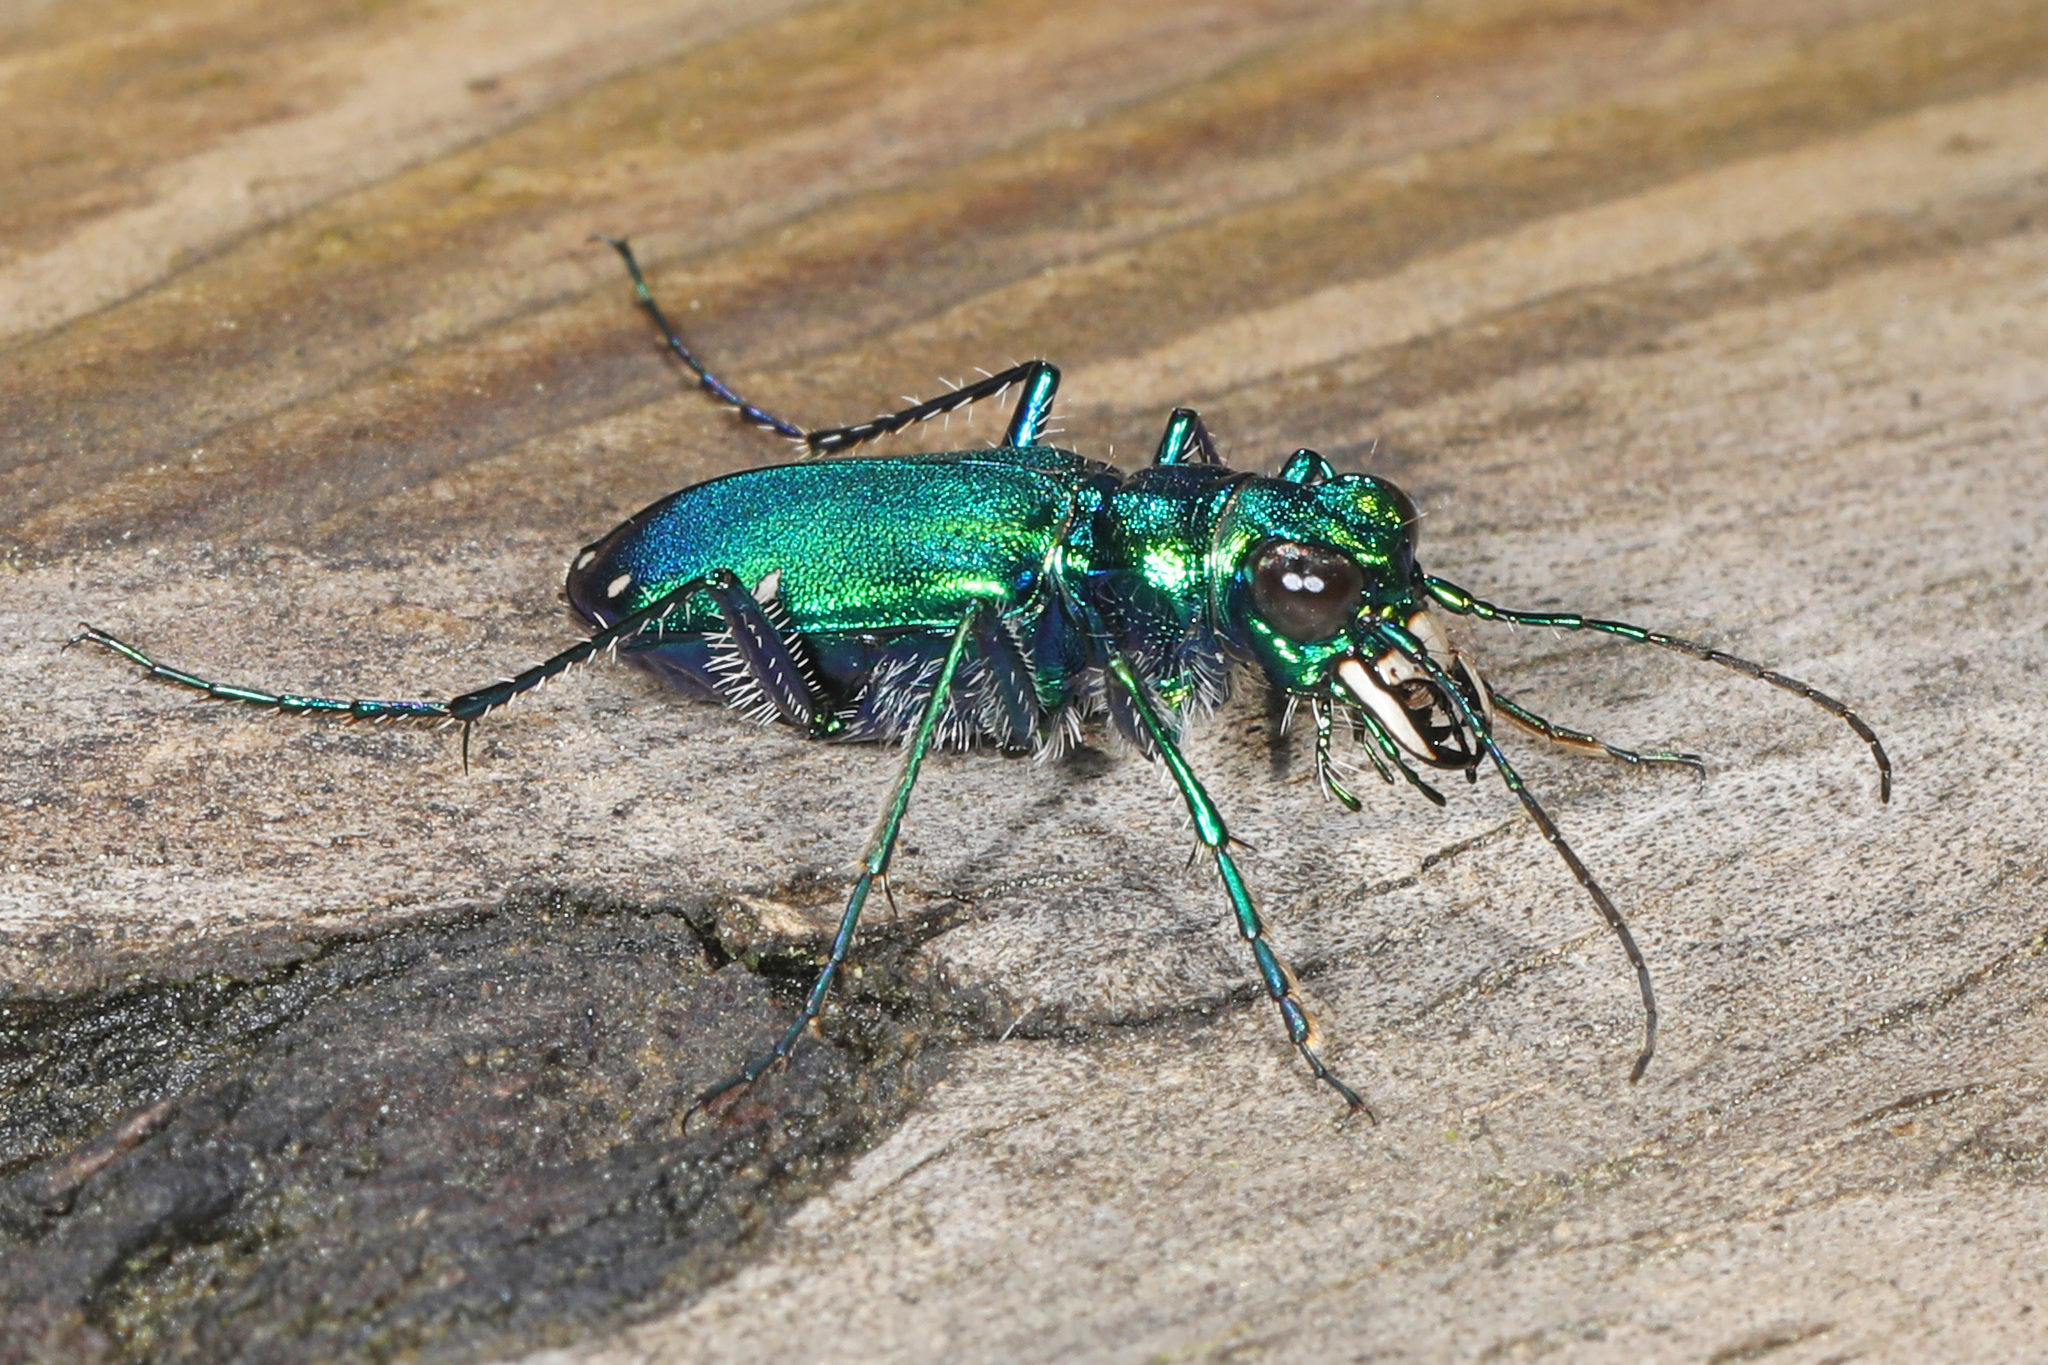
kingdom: Animalia
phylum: Arthropoda
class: Insecta
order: Coleoptera
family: Carabidae
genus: Cicindela
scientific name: Cicindela sexguttata
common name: Six-spotted tiger beetle
